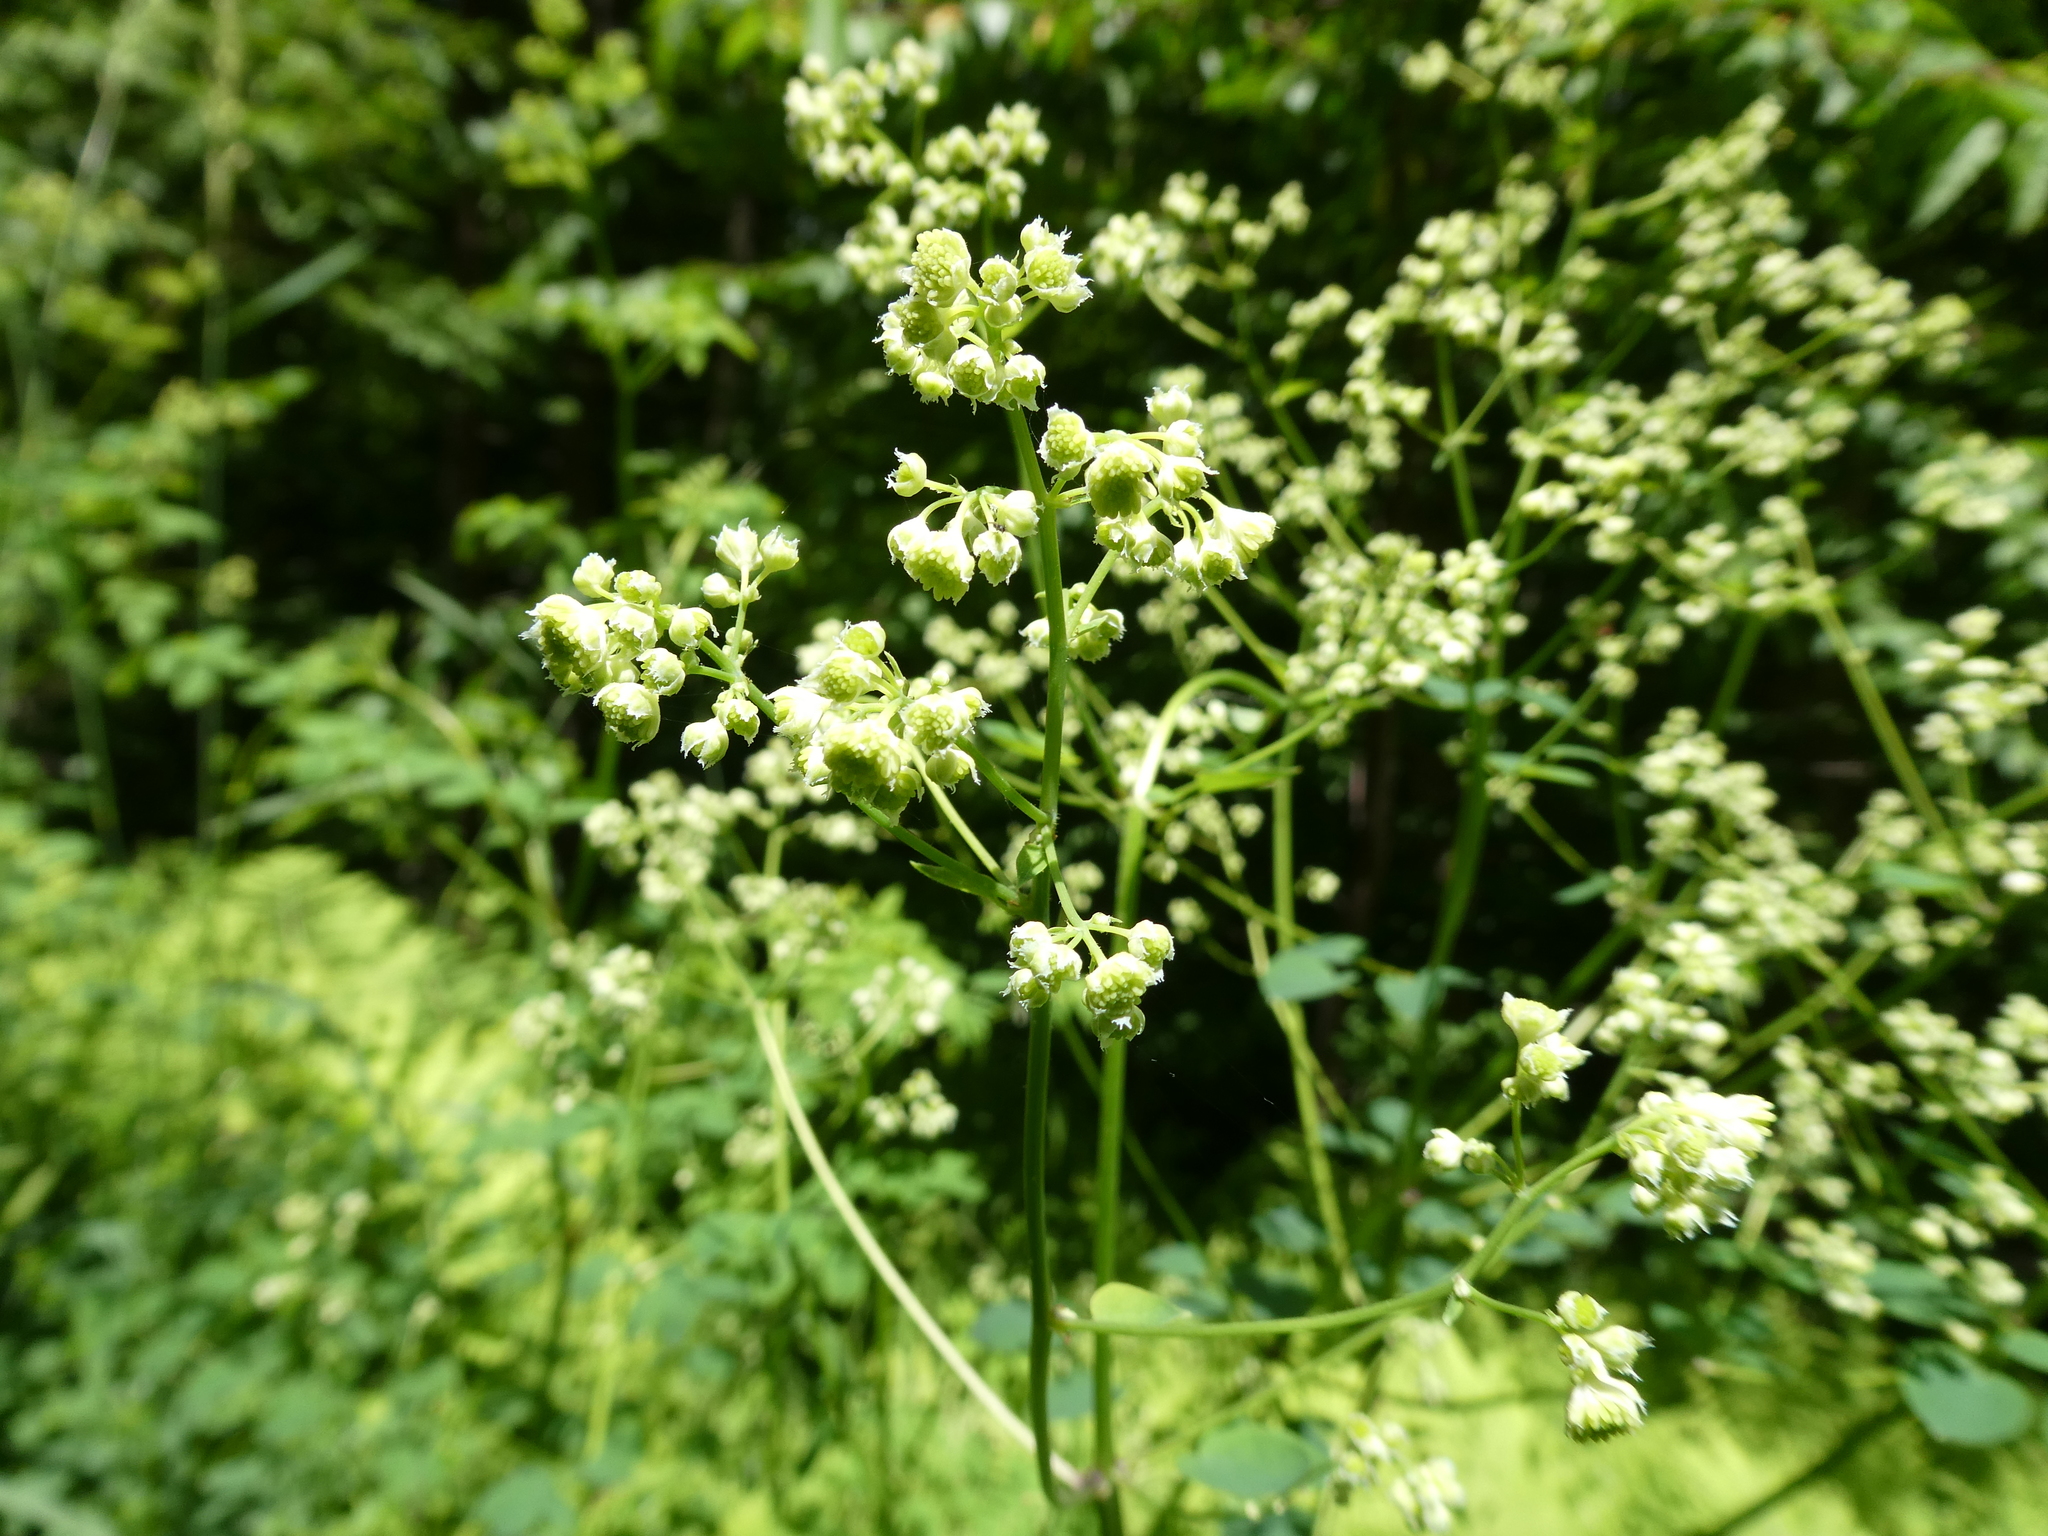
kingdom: Plantae
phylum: Tracheophyta
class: Magnoliopsida
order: Ranunculales
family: Ranunculaceae
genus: Thalictrum
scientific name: Thalictrum pubescens
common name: King-of-the-meadow
